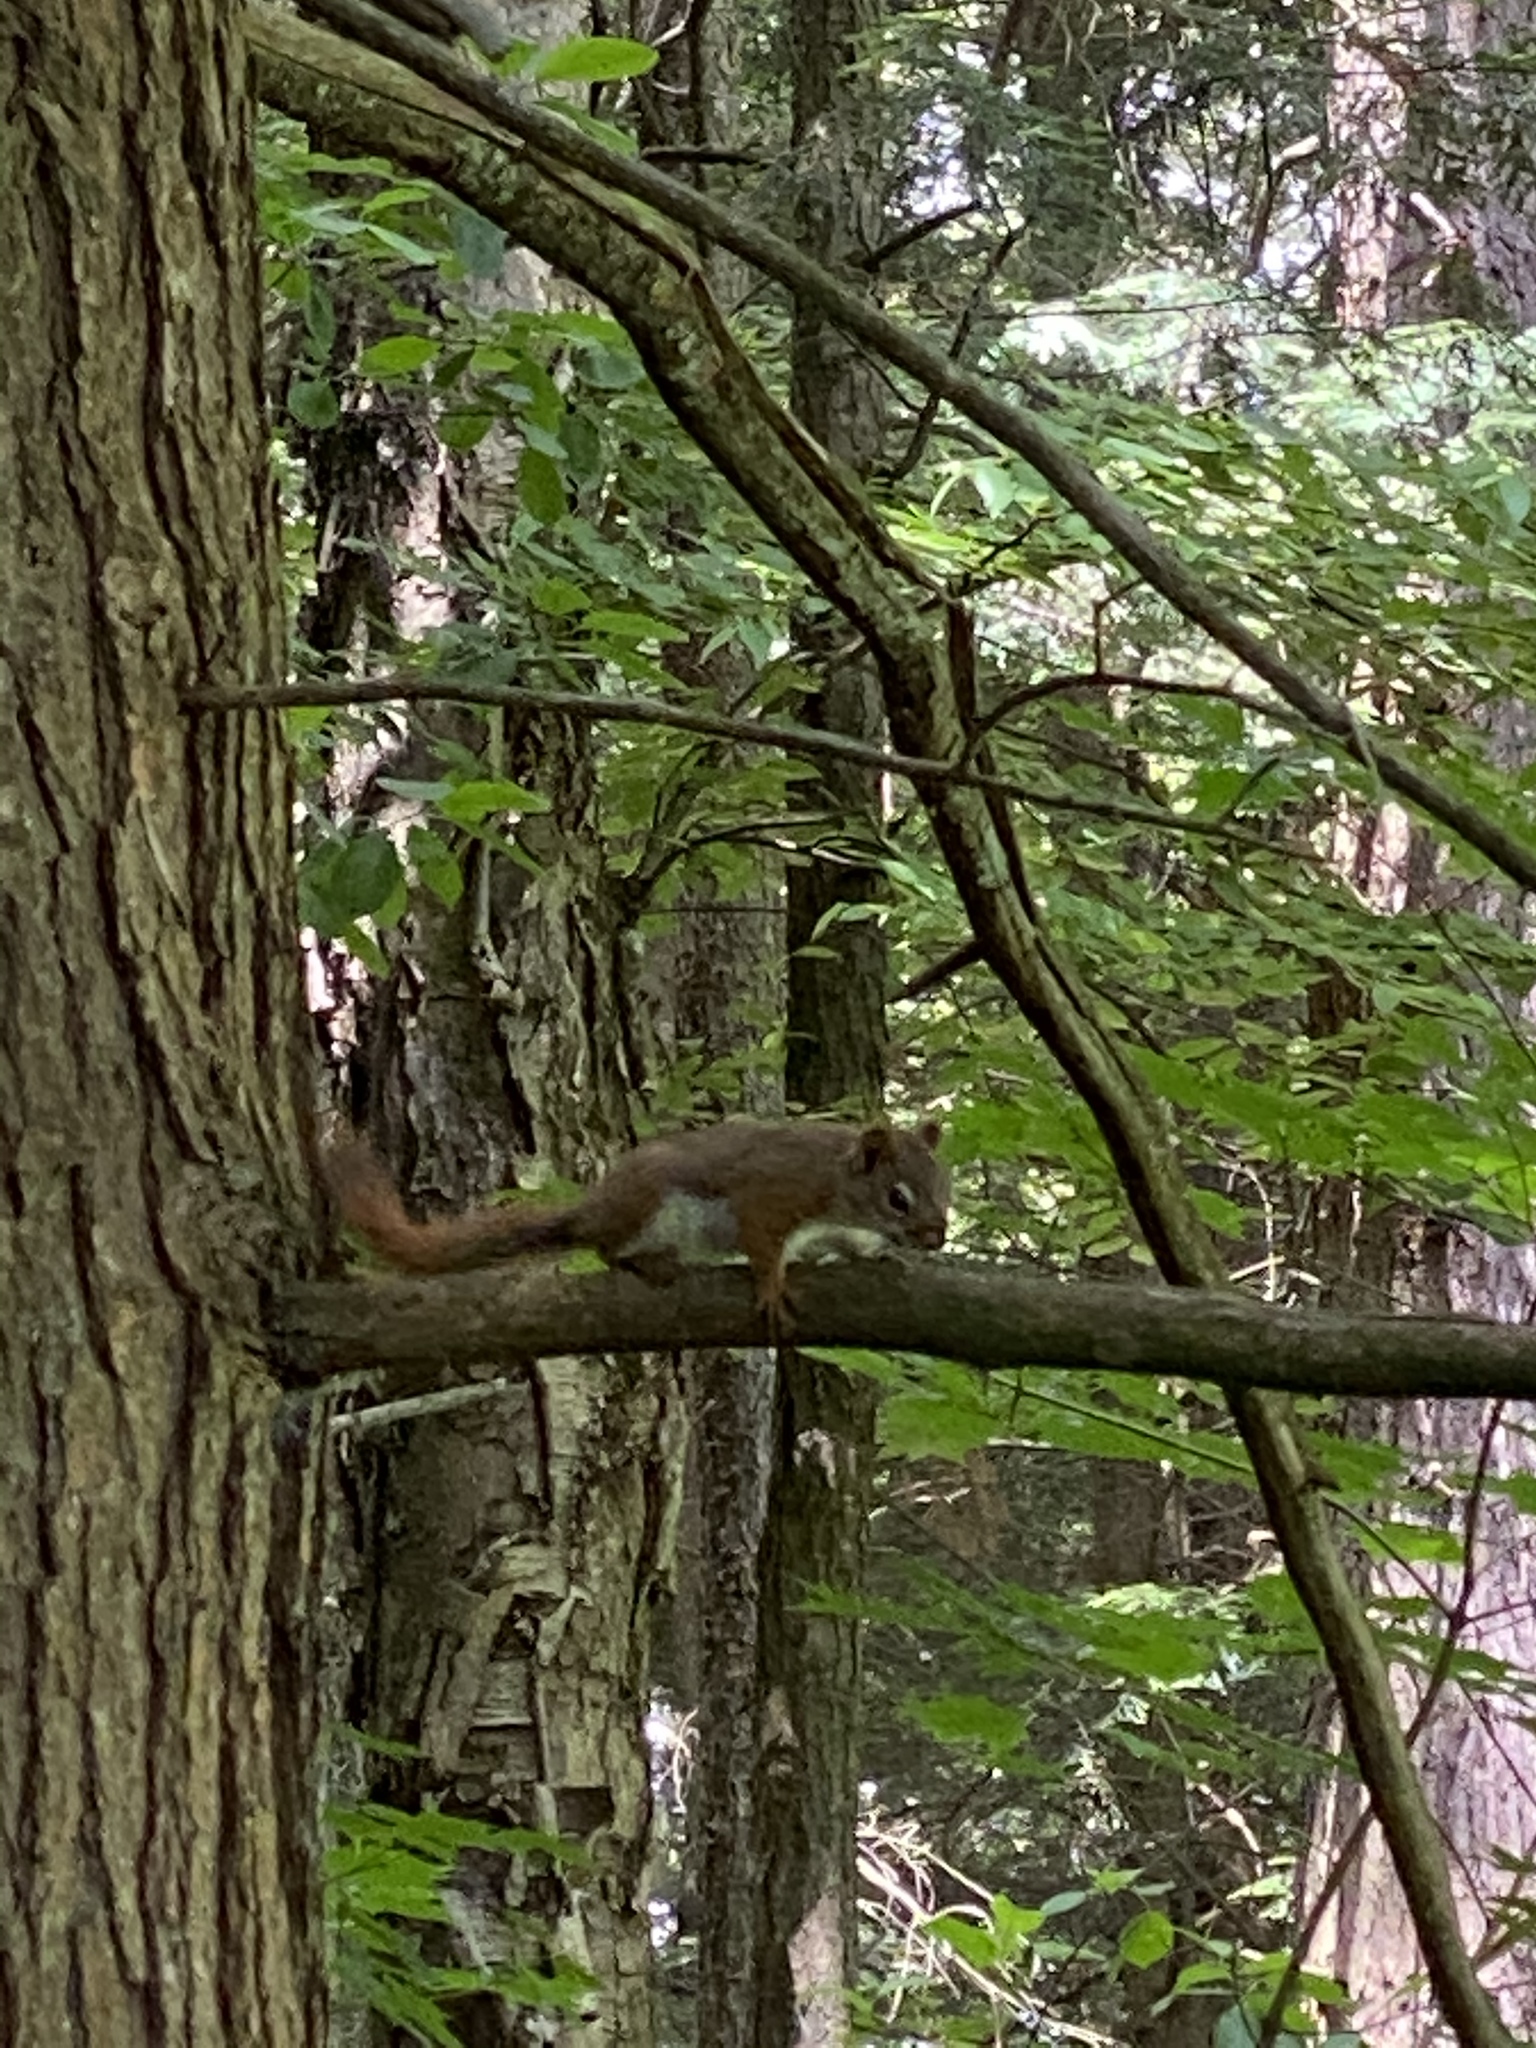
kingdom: Animalia
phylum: Chordata
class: Mammalia
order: Rodentia
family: Sciuridae
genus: Tamiasciurus
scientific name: Tamiasciurus hudsonicus
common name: Red squirrel
